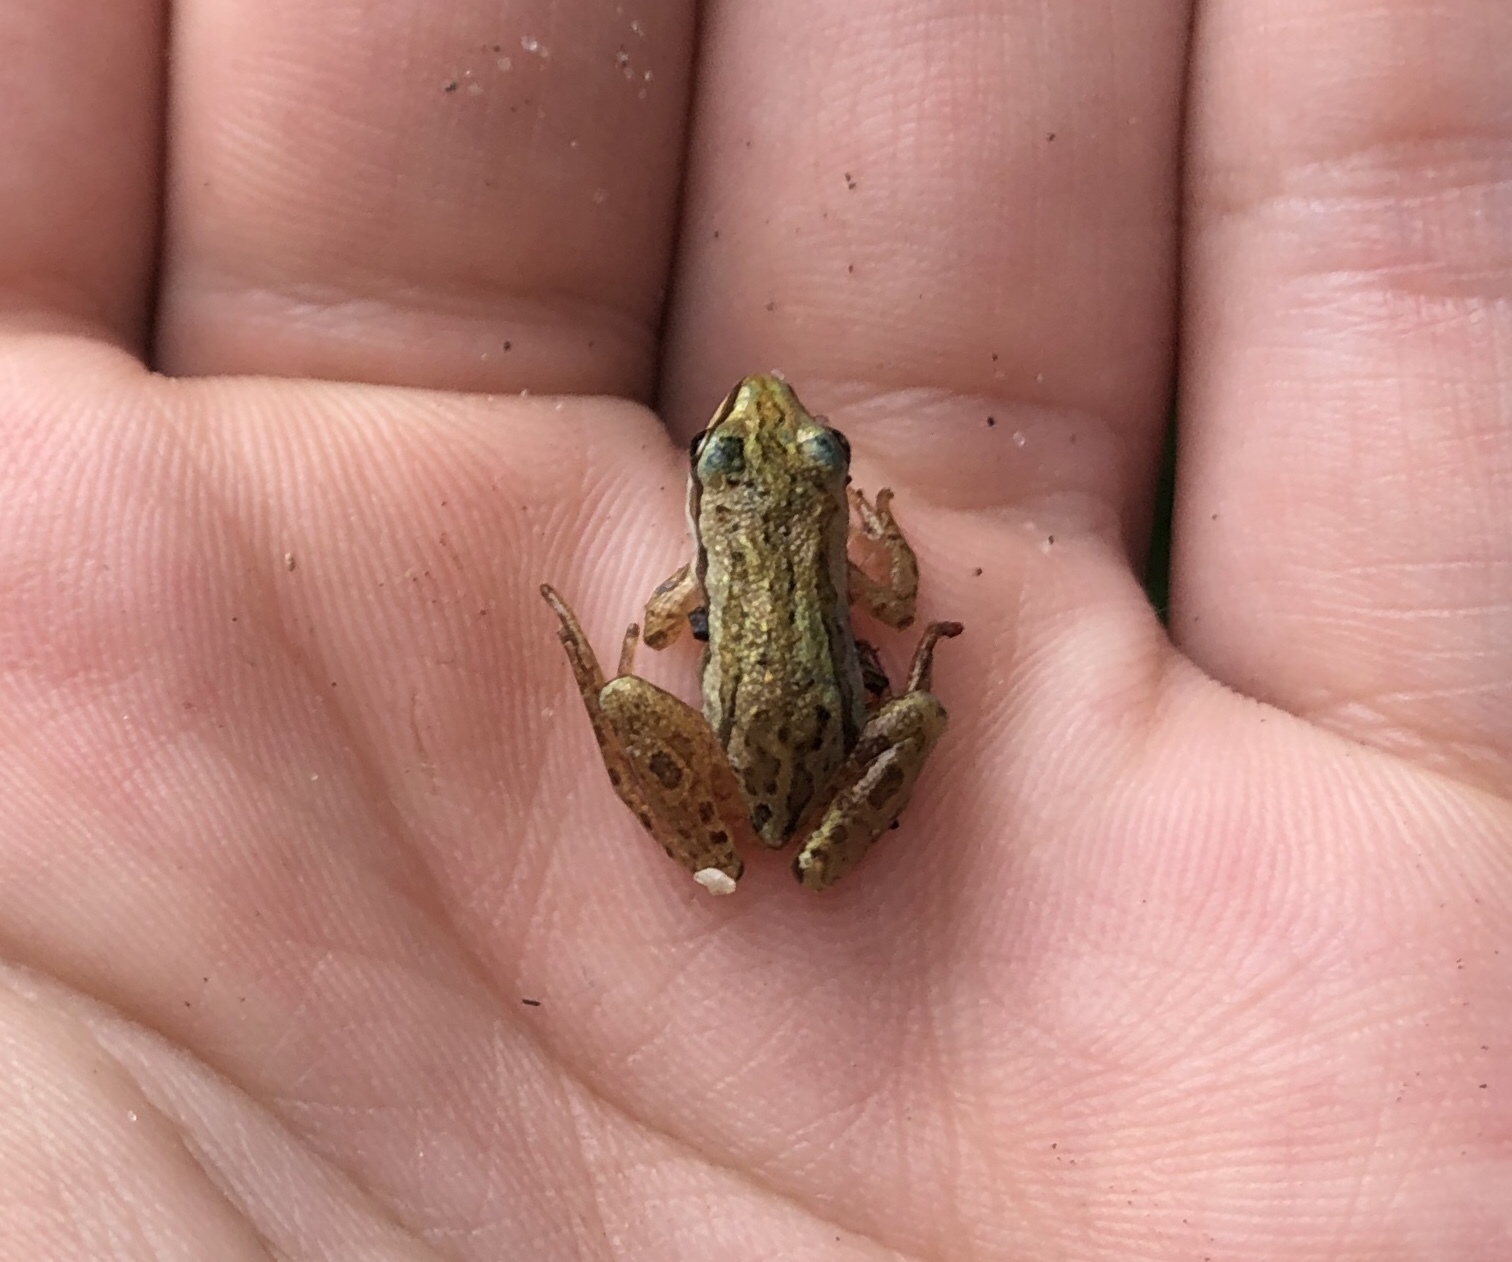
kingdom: Animalia
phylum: Chordata
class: Amphibia
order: Anura
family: Hylidae
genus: Pseudacris
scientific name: Pseudacris maculata
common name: Boreal chorus frog
